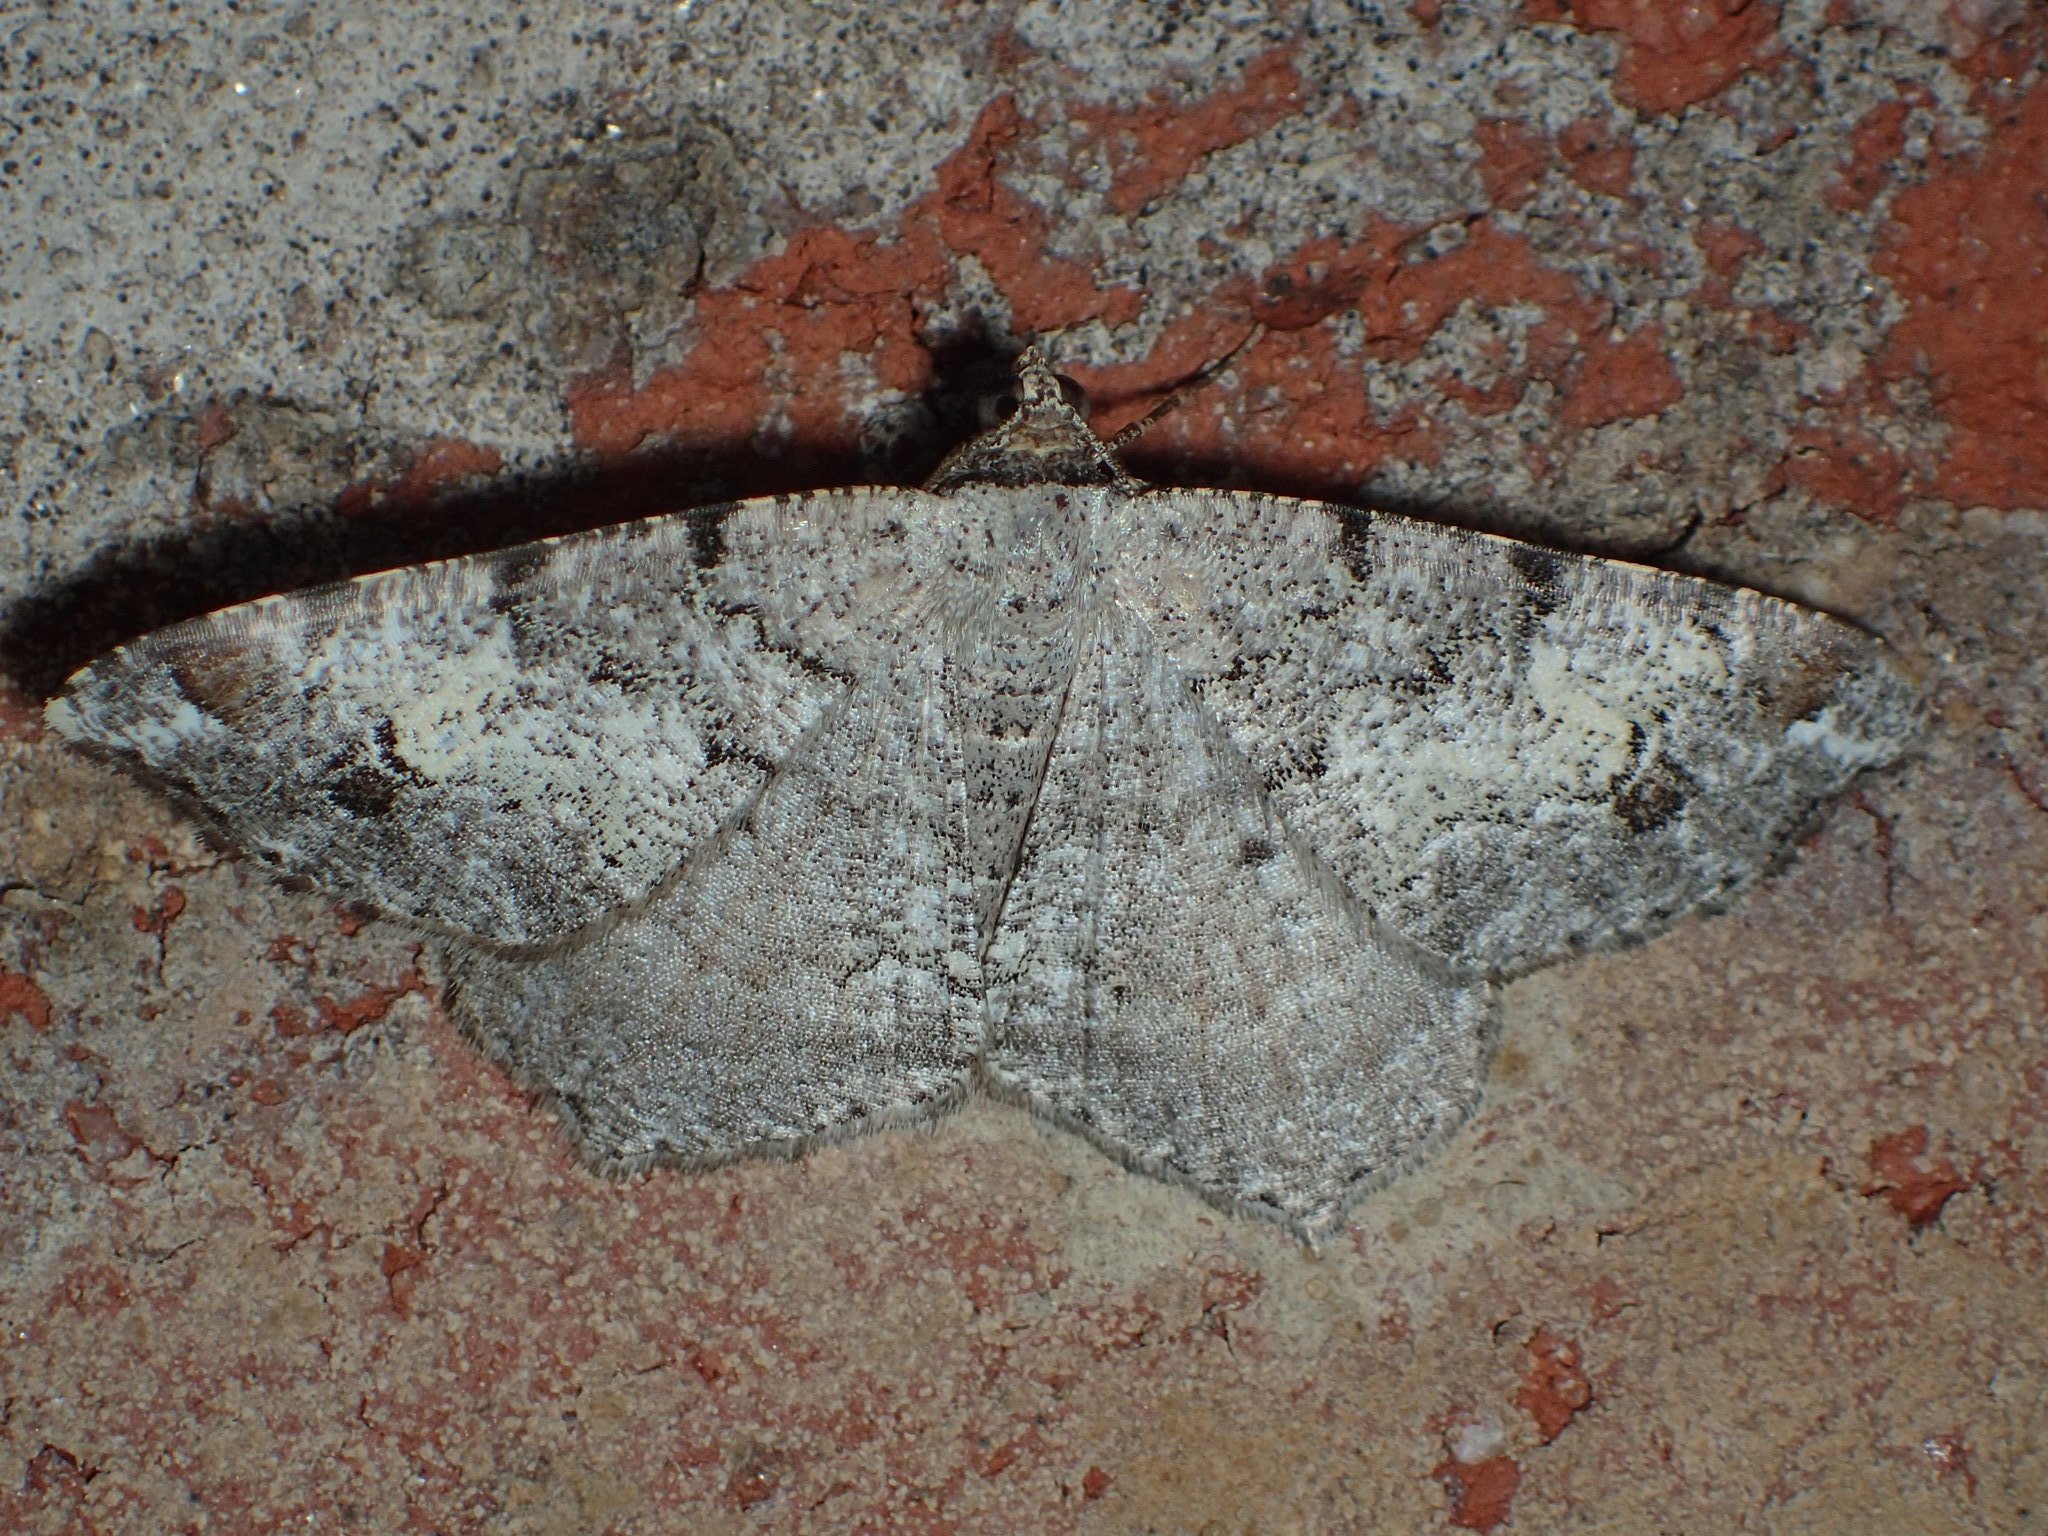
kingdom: Animalia
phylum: Arthropoda
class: Insecta
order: Lepidoptera
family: Geometridae
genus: Macaria
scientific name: Macaria granitata
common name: Granite moth
